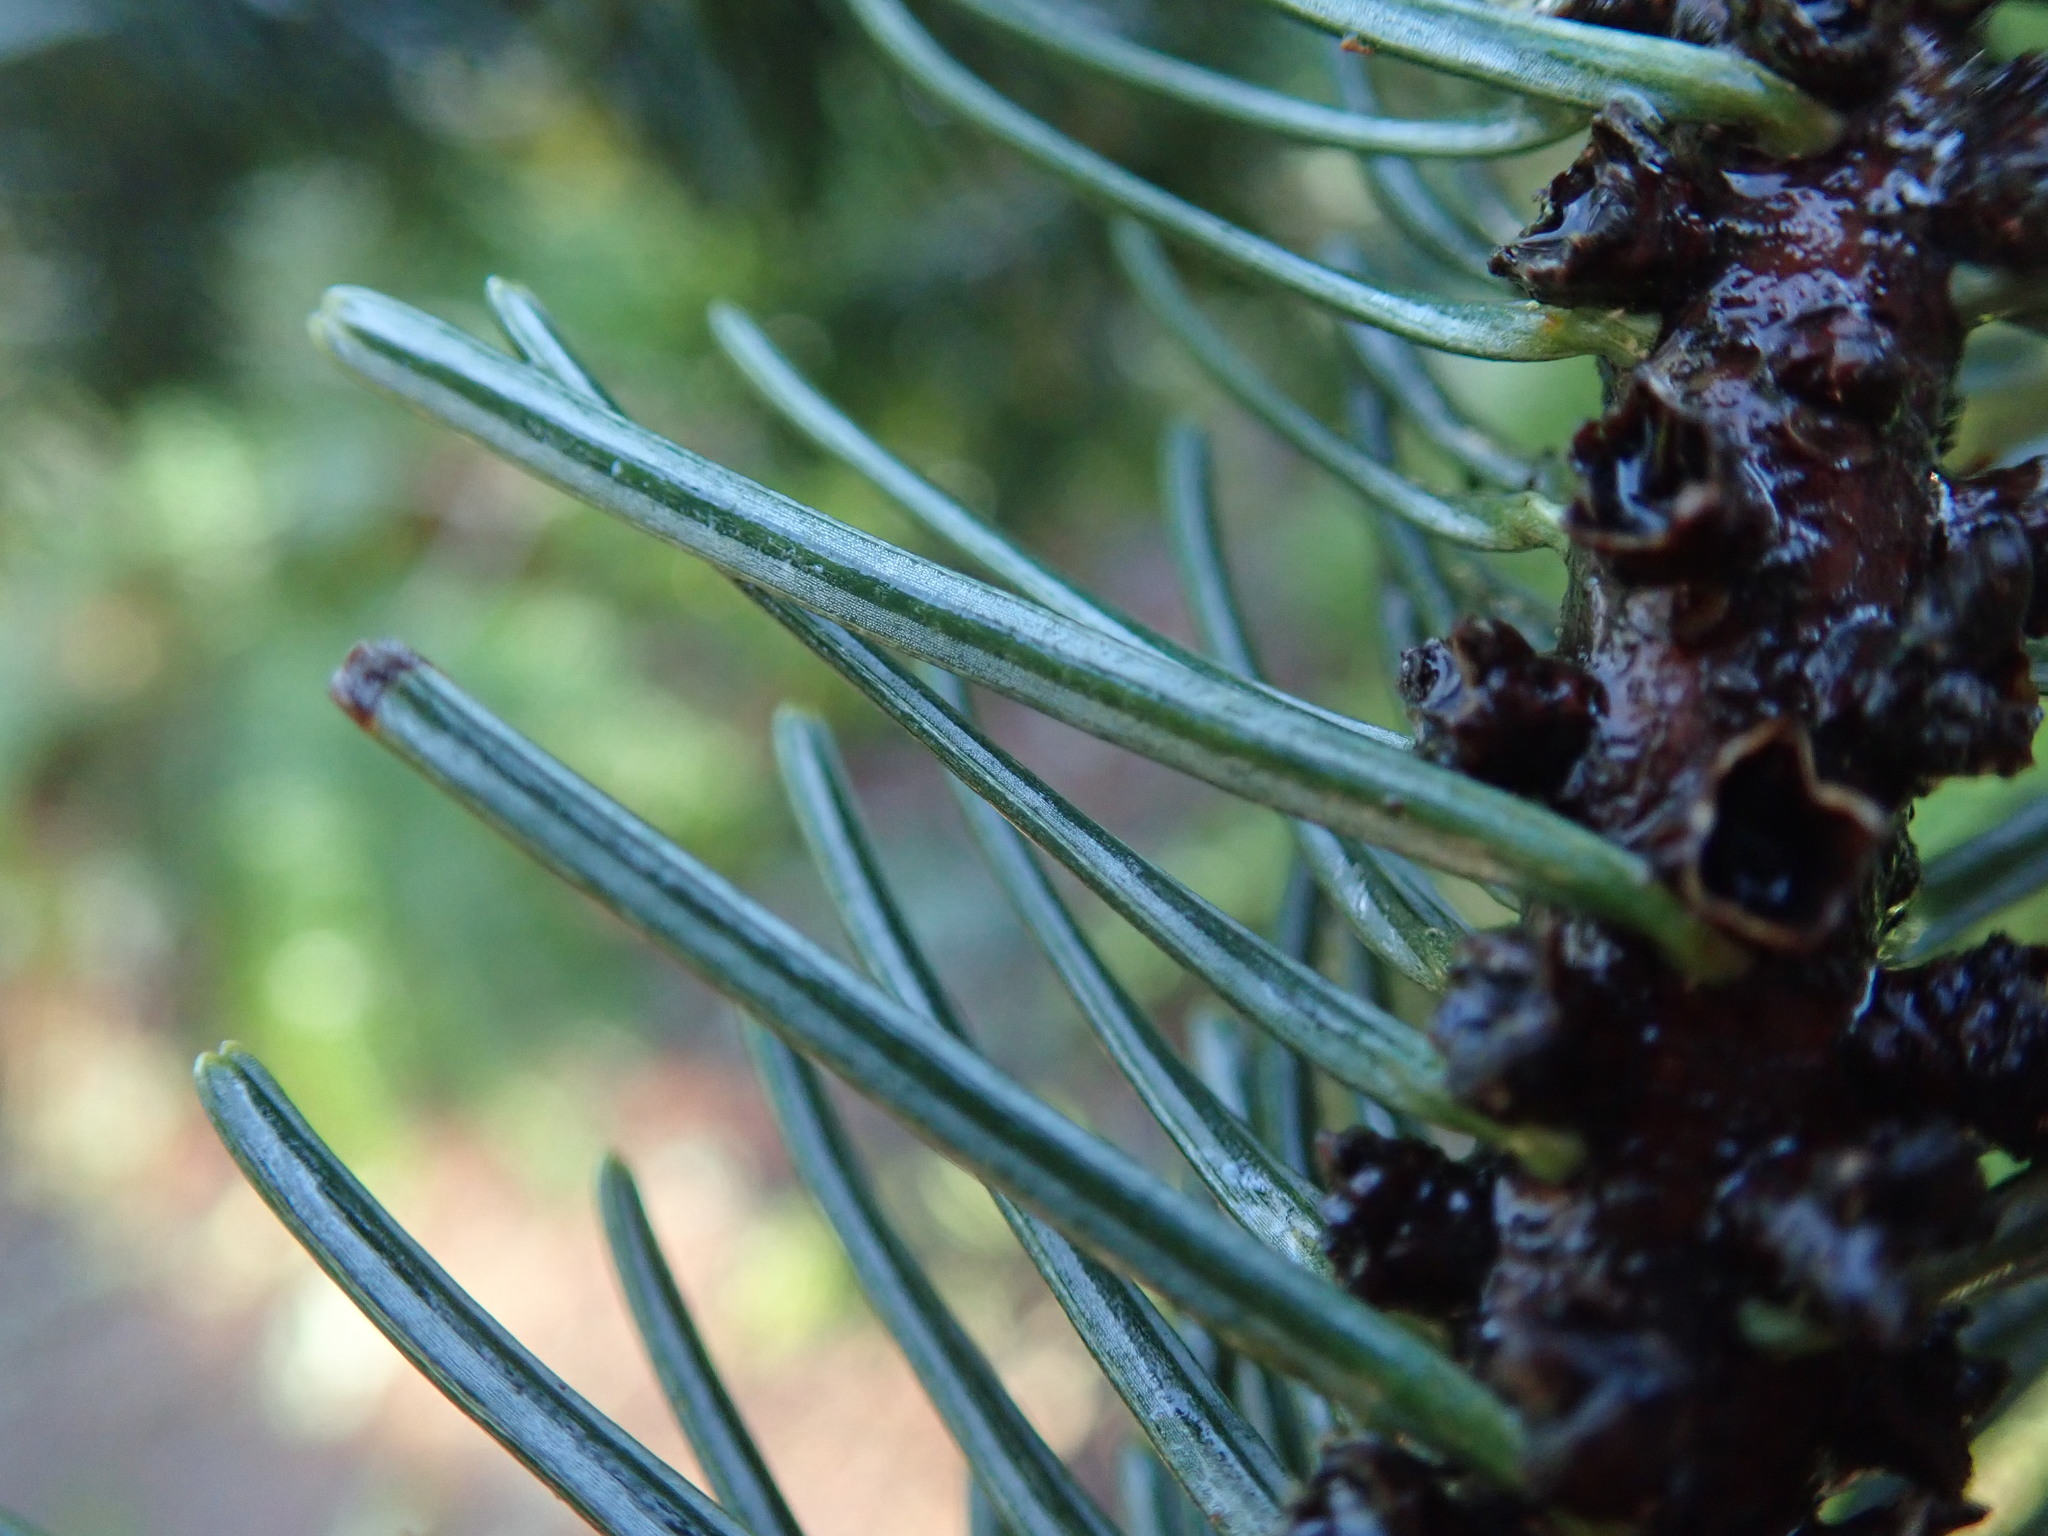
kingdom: Plantae
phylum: Tracheophyta
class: Pinopsida
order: Pinales
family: Pinaceae
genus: Abies
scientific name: Abies grandis
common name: Giant fir
